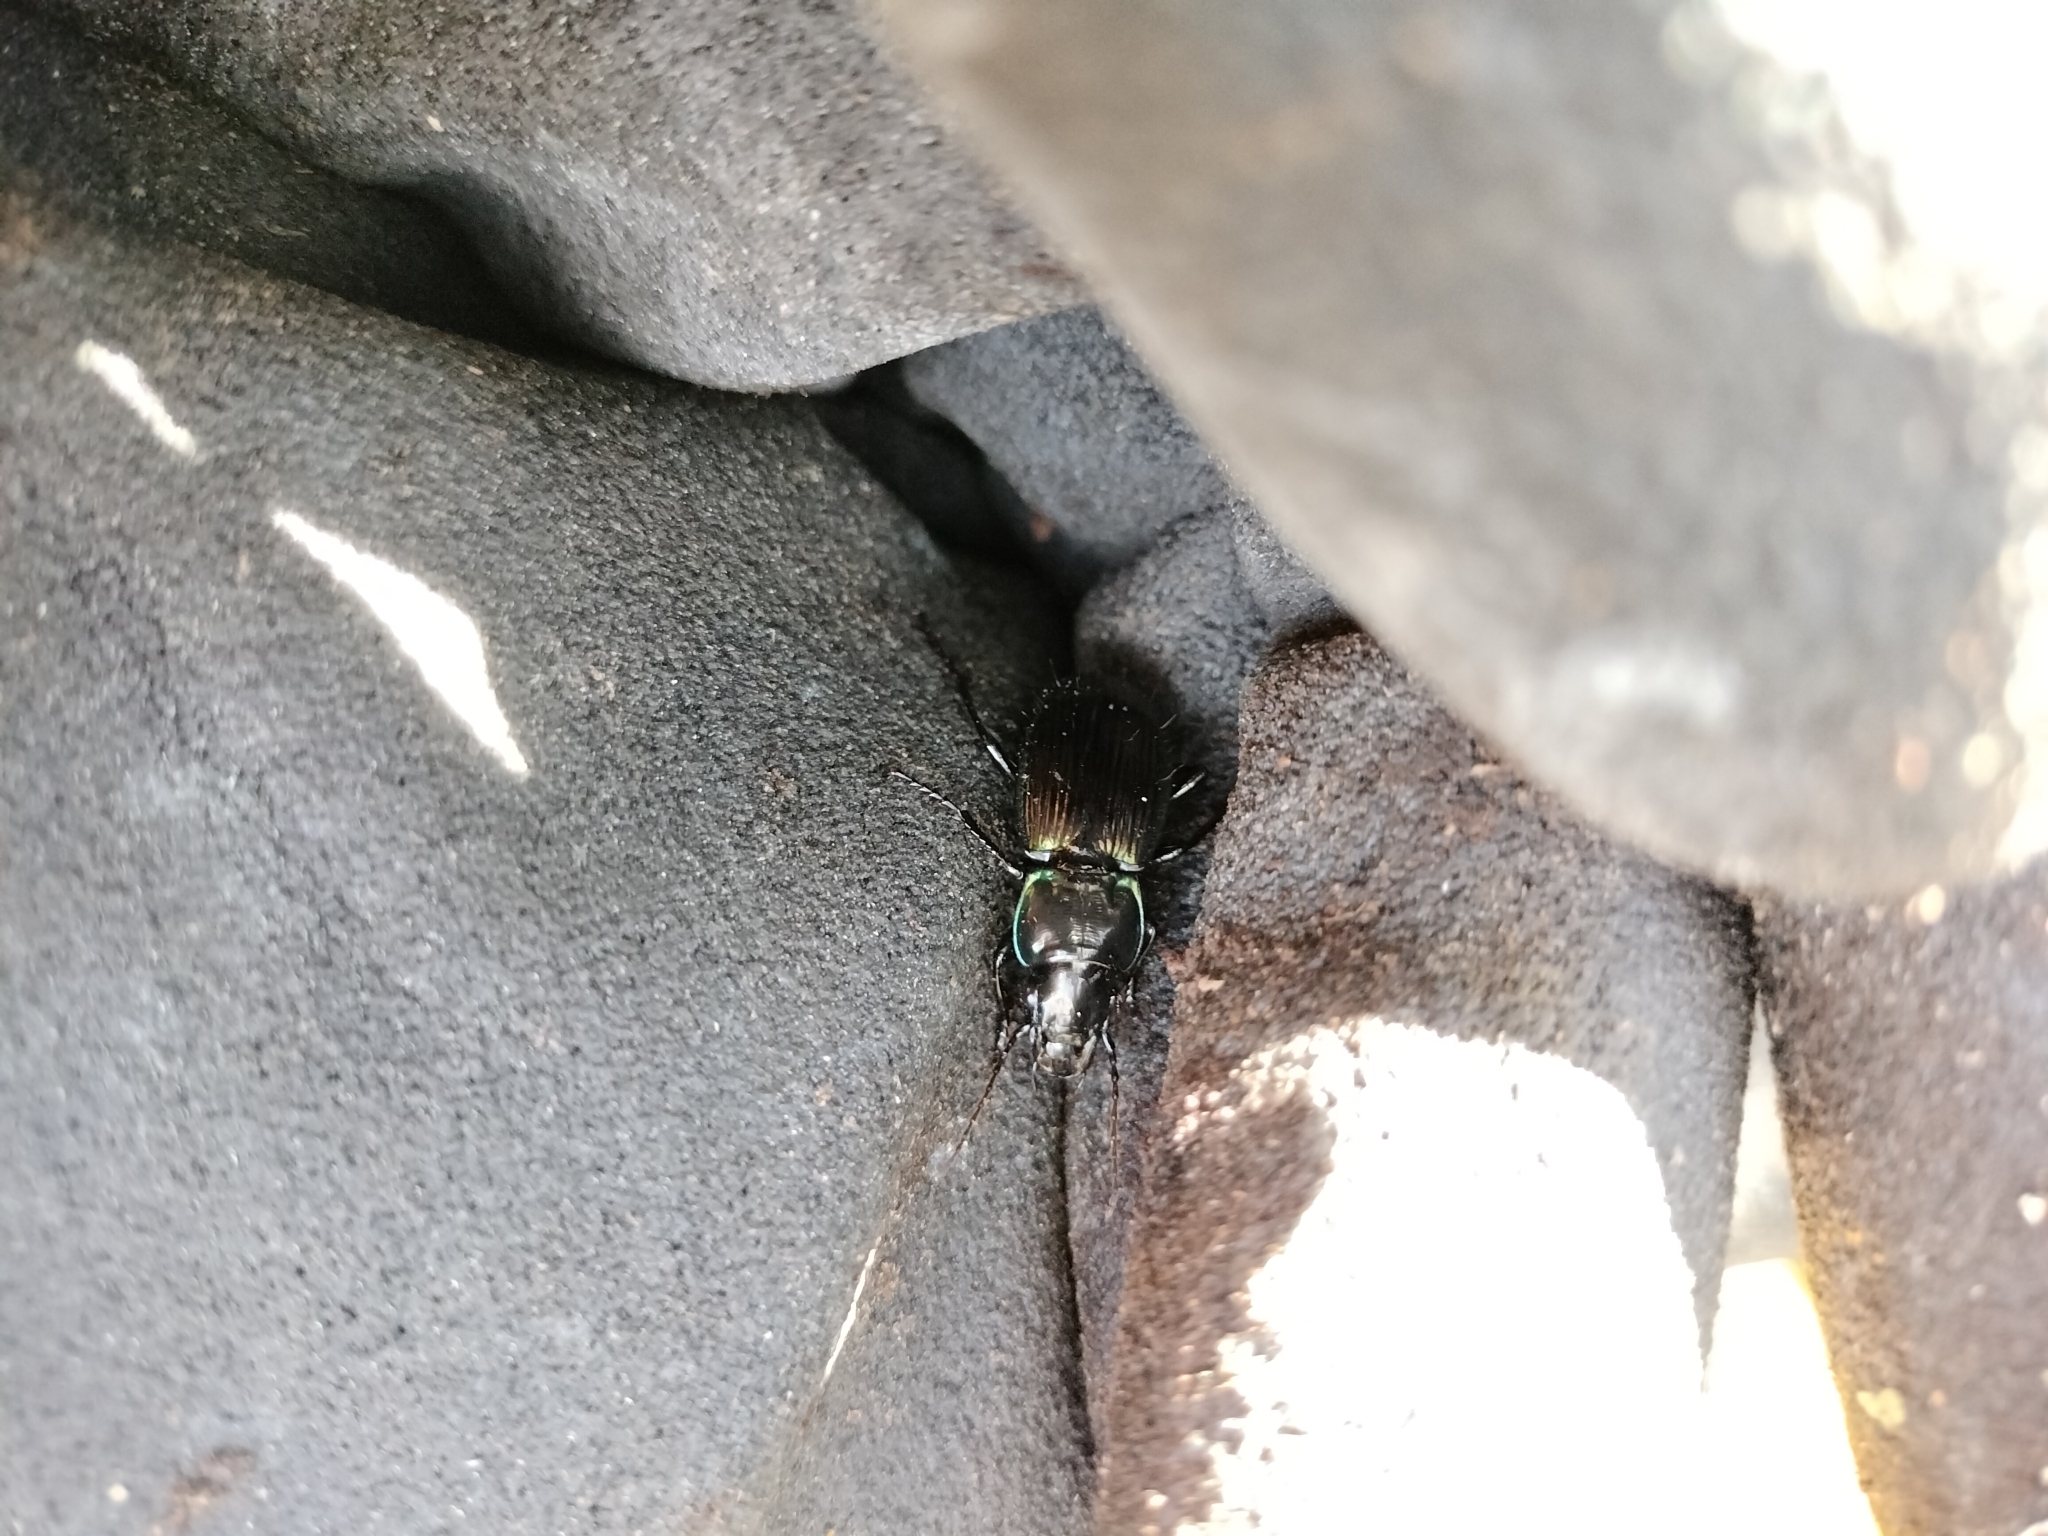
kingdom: Animalia
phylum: Arthropoda
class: Insecta
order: Coleoptera
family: Carabidae
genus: Megadromus
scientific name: Megadromus antarcticus
